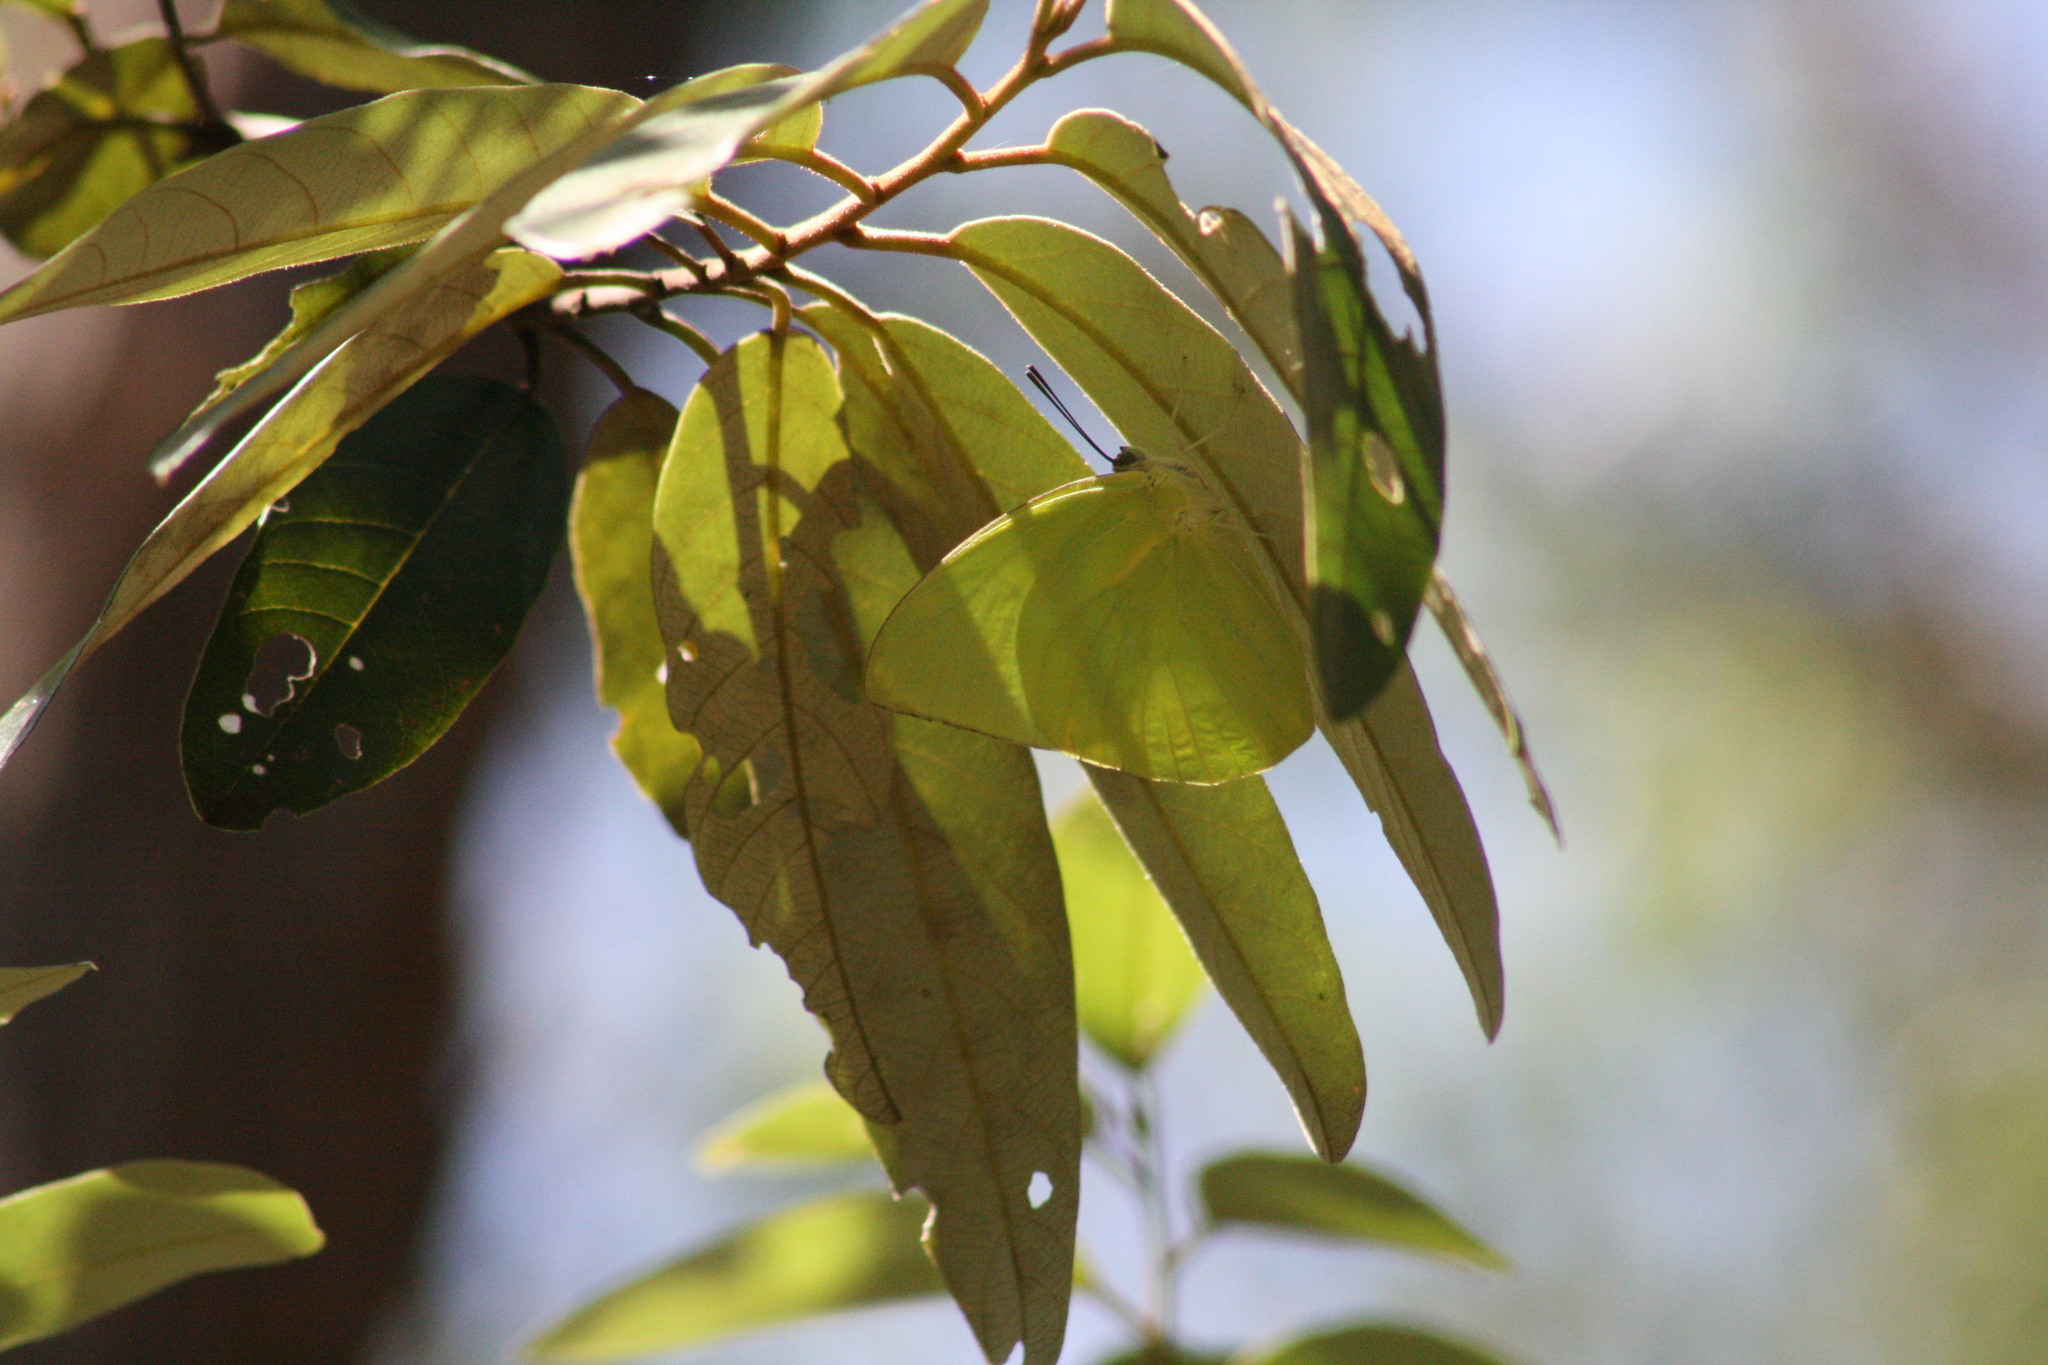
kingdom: Animalia
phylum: Arthropoda
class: Insecta
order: Lepidoptera
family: Pieridae
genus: Catopsilia
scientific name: Catopsilia pomona
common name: Common emigrant
